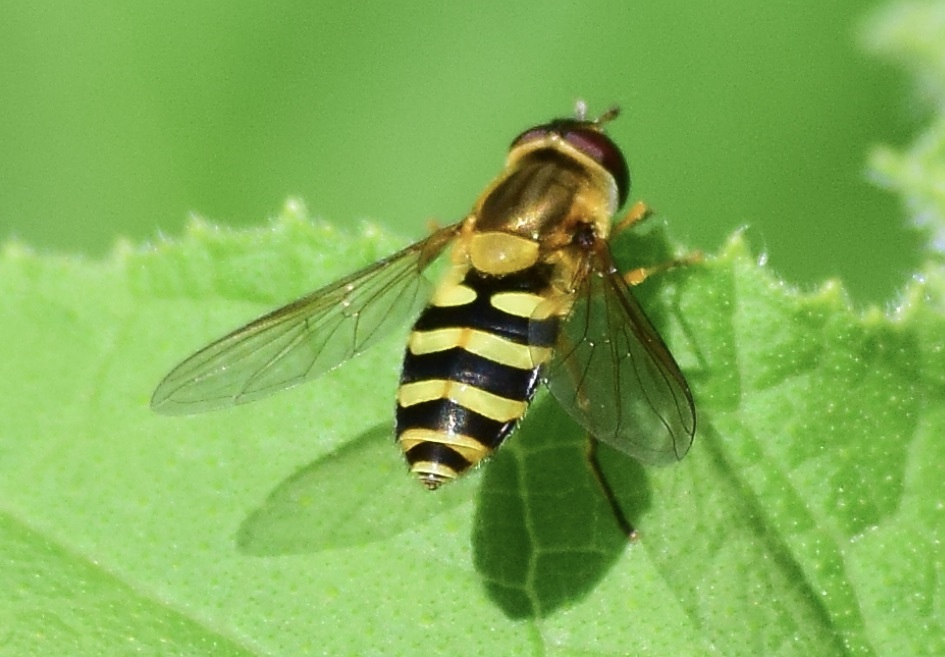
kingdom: Animalia
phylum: Arthropoda
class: Insecta
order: Diptera
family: Syrphidae
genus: Syrphus
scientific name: Syrphus ribesii
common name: Common flower fly
